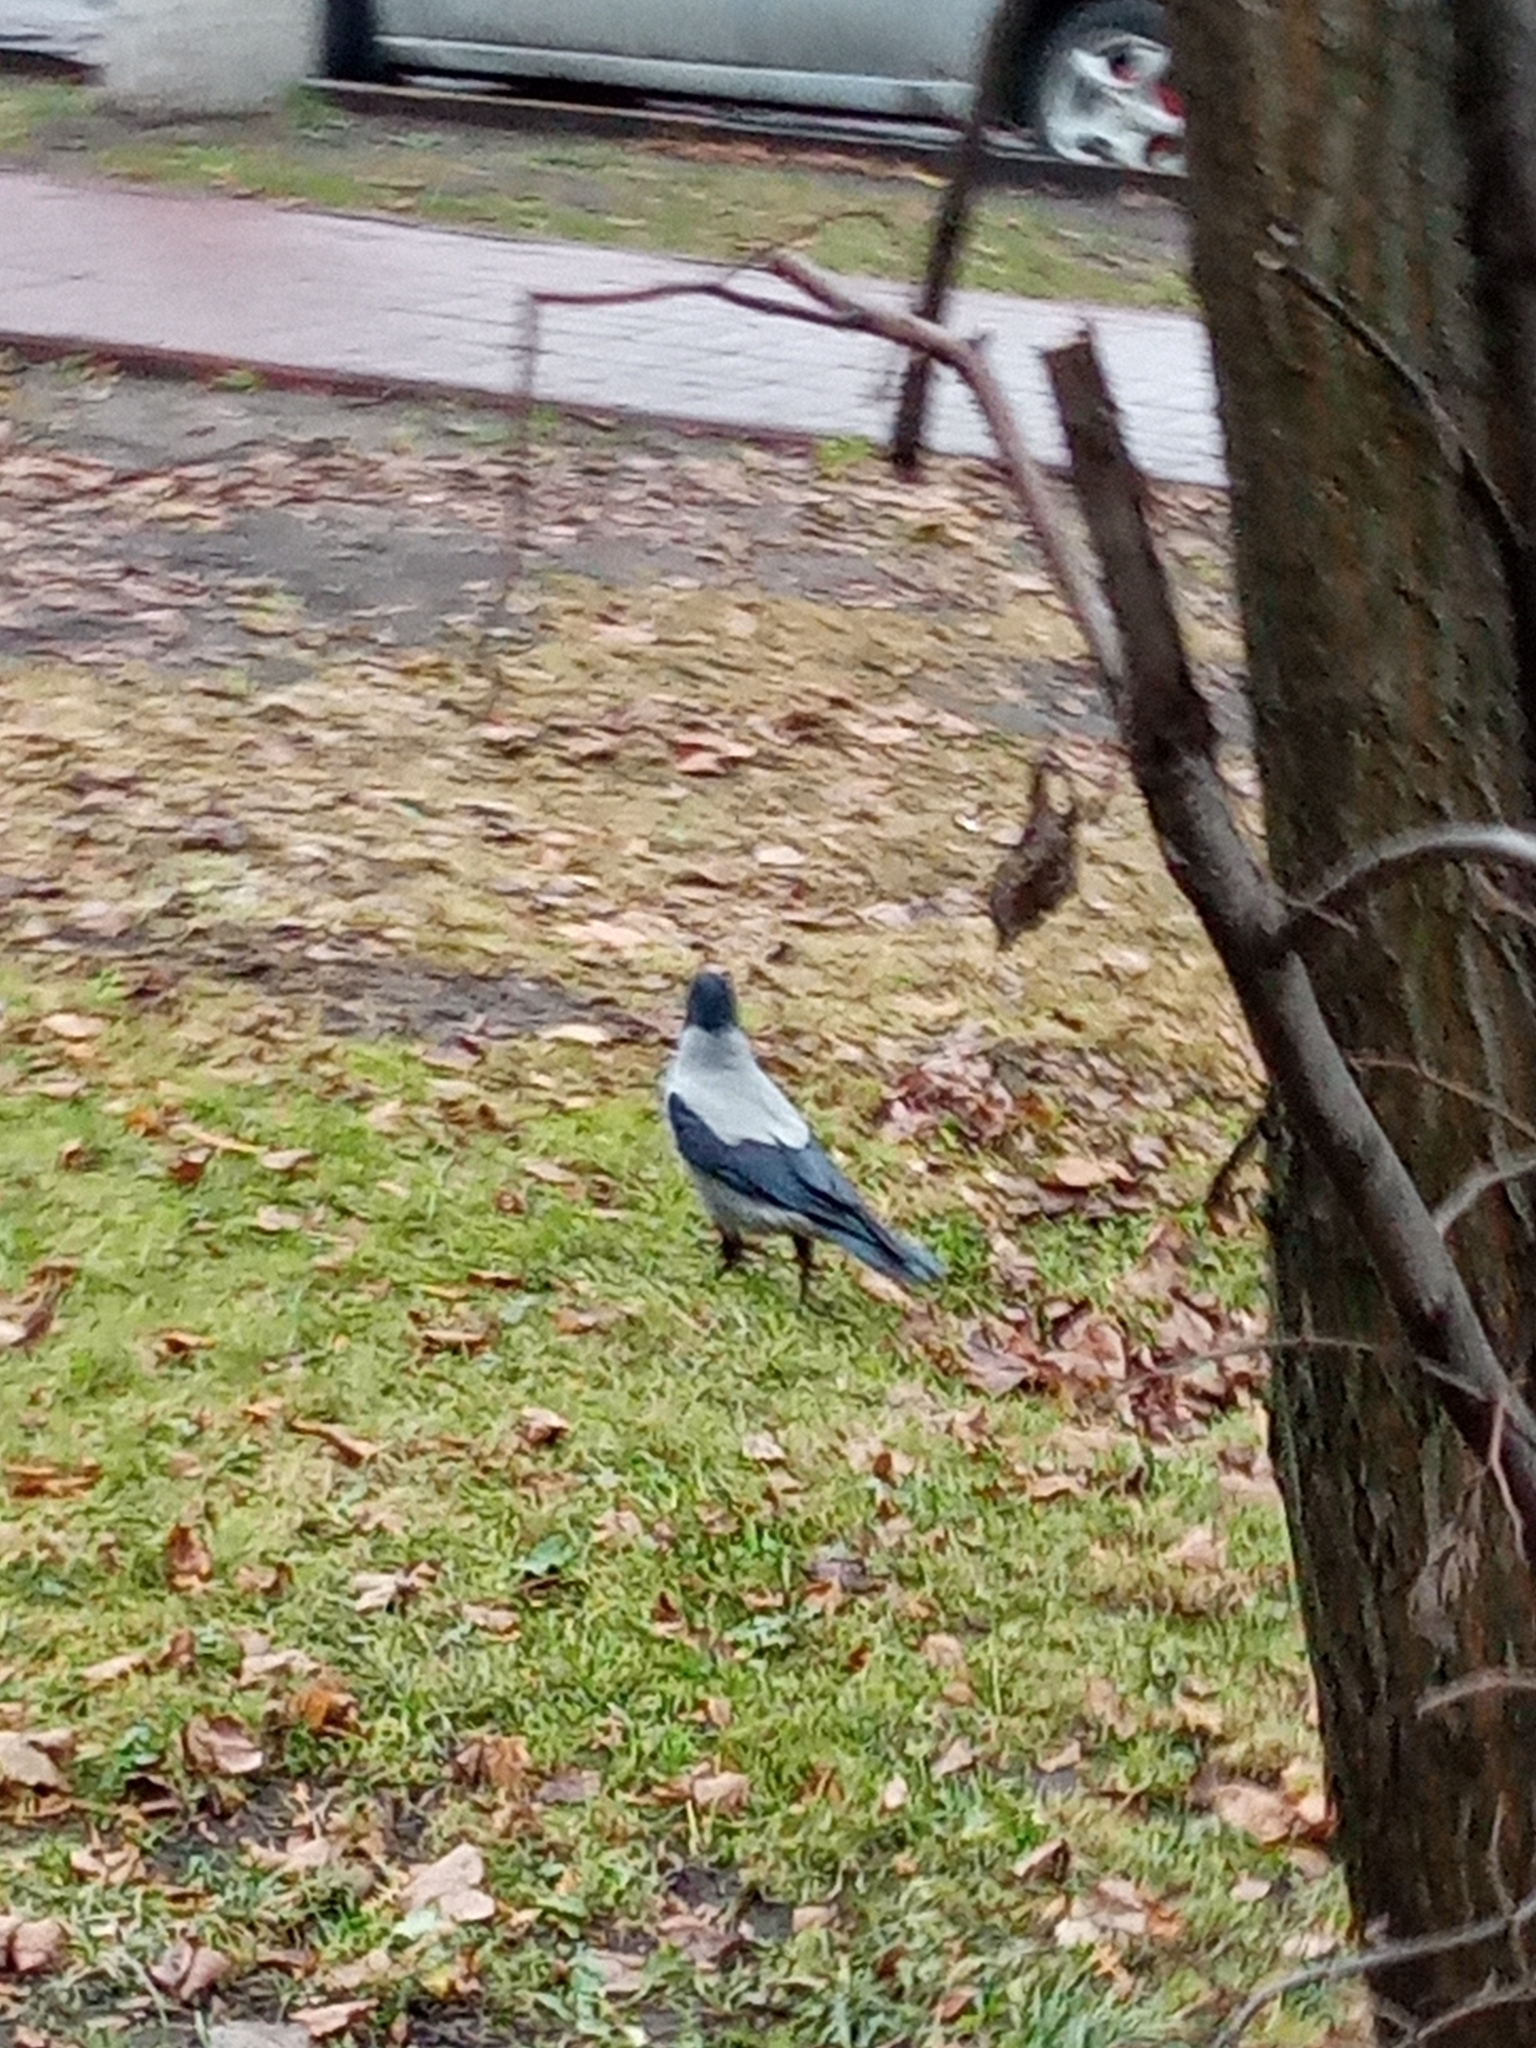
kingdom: Animalia
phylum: Chordata
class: Aves
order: Passeriformes
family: Corvidae
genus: Corvus
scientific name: Corvus cornix
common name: Hooded crow
